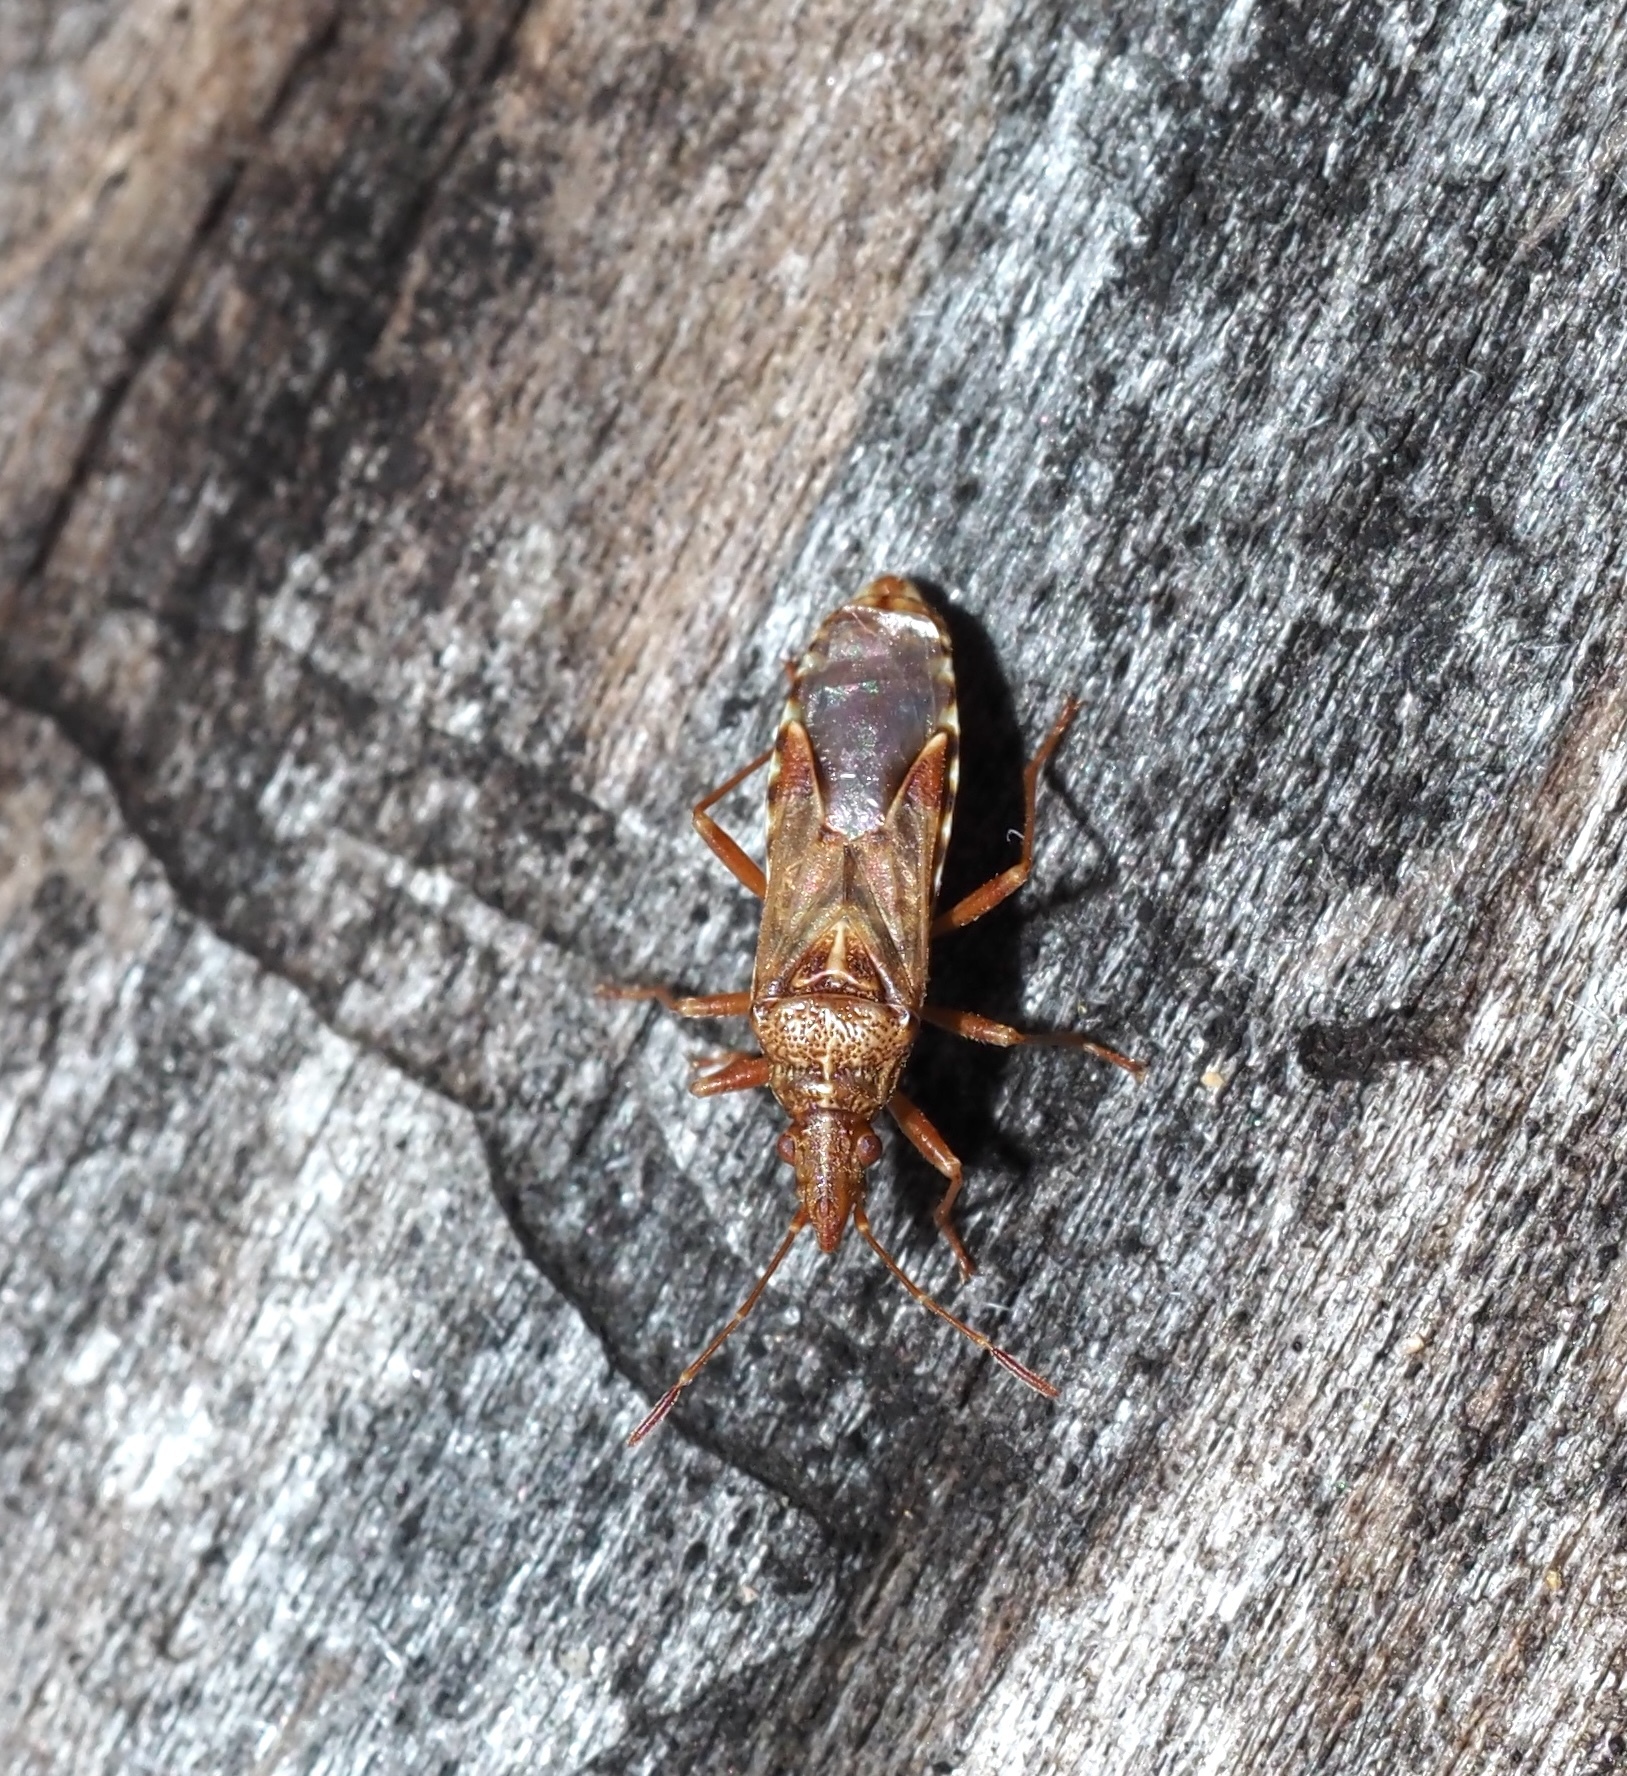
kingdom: Animalia
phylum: Arthropoda
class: Insecta
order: Hemiptera
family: Lygaeidae
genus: Belonochilus
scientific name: Belonochilus numenius
